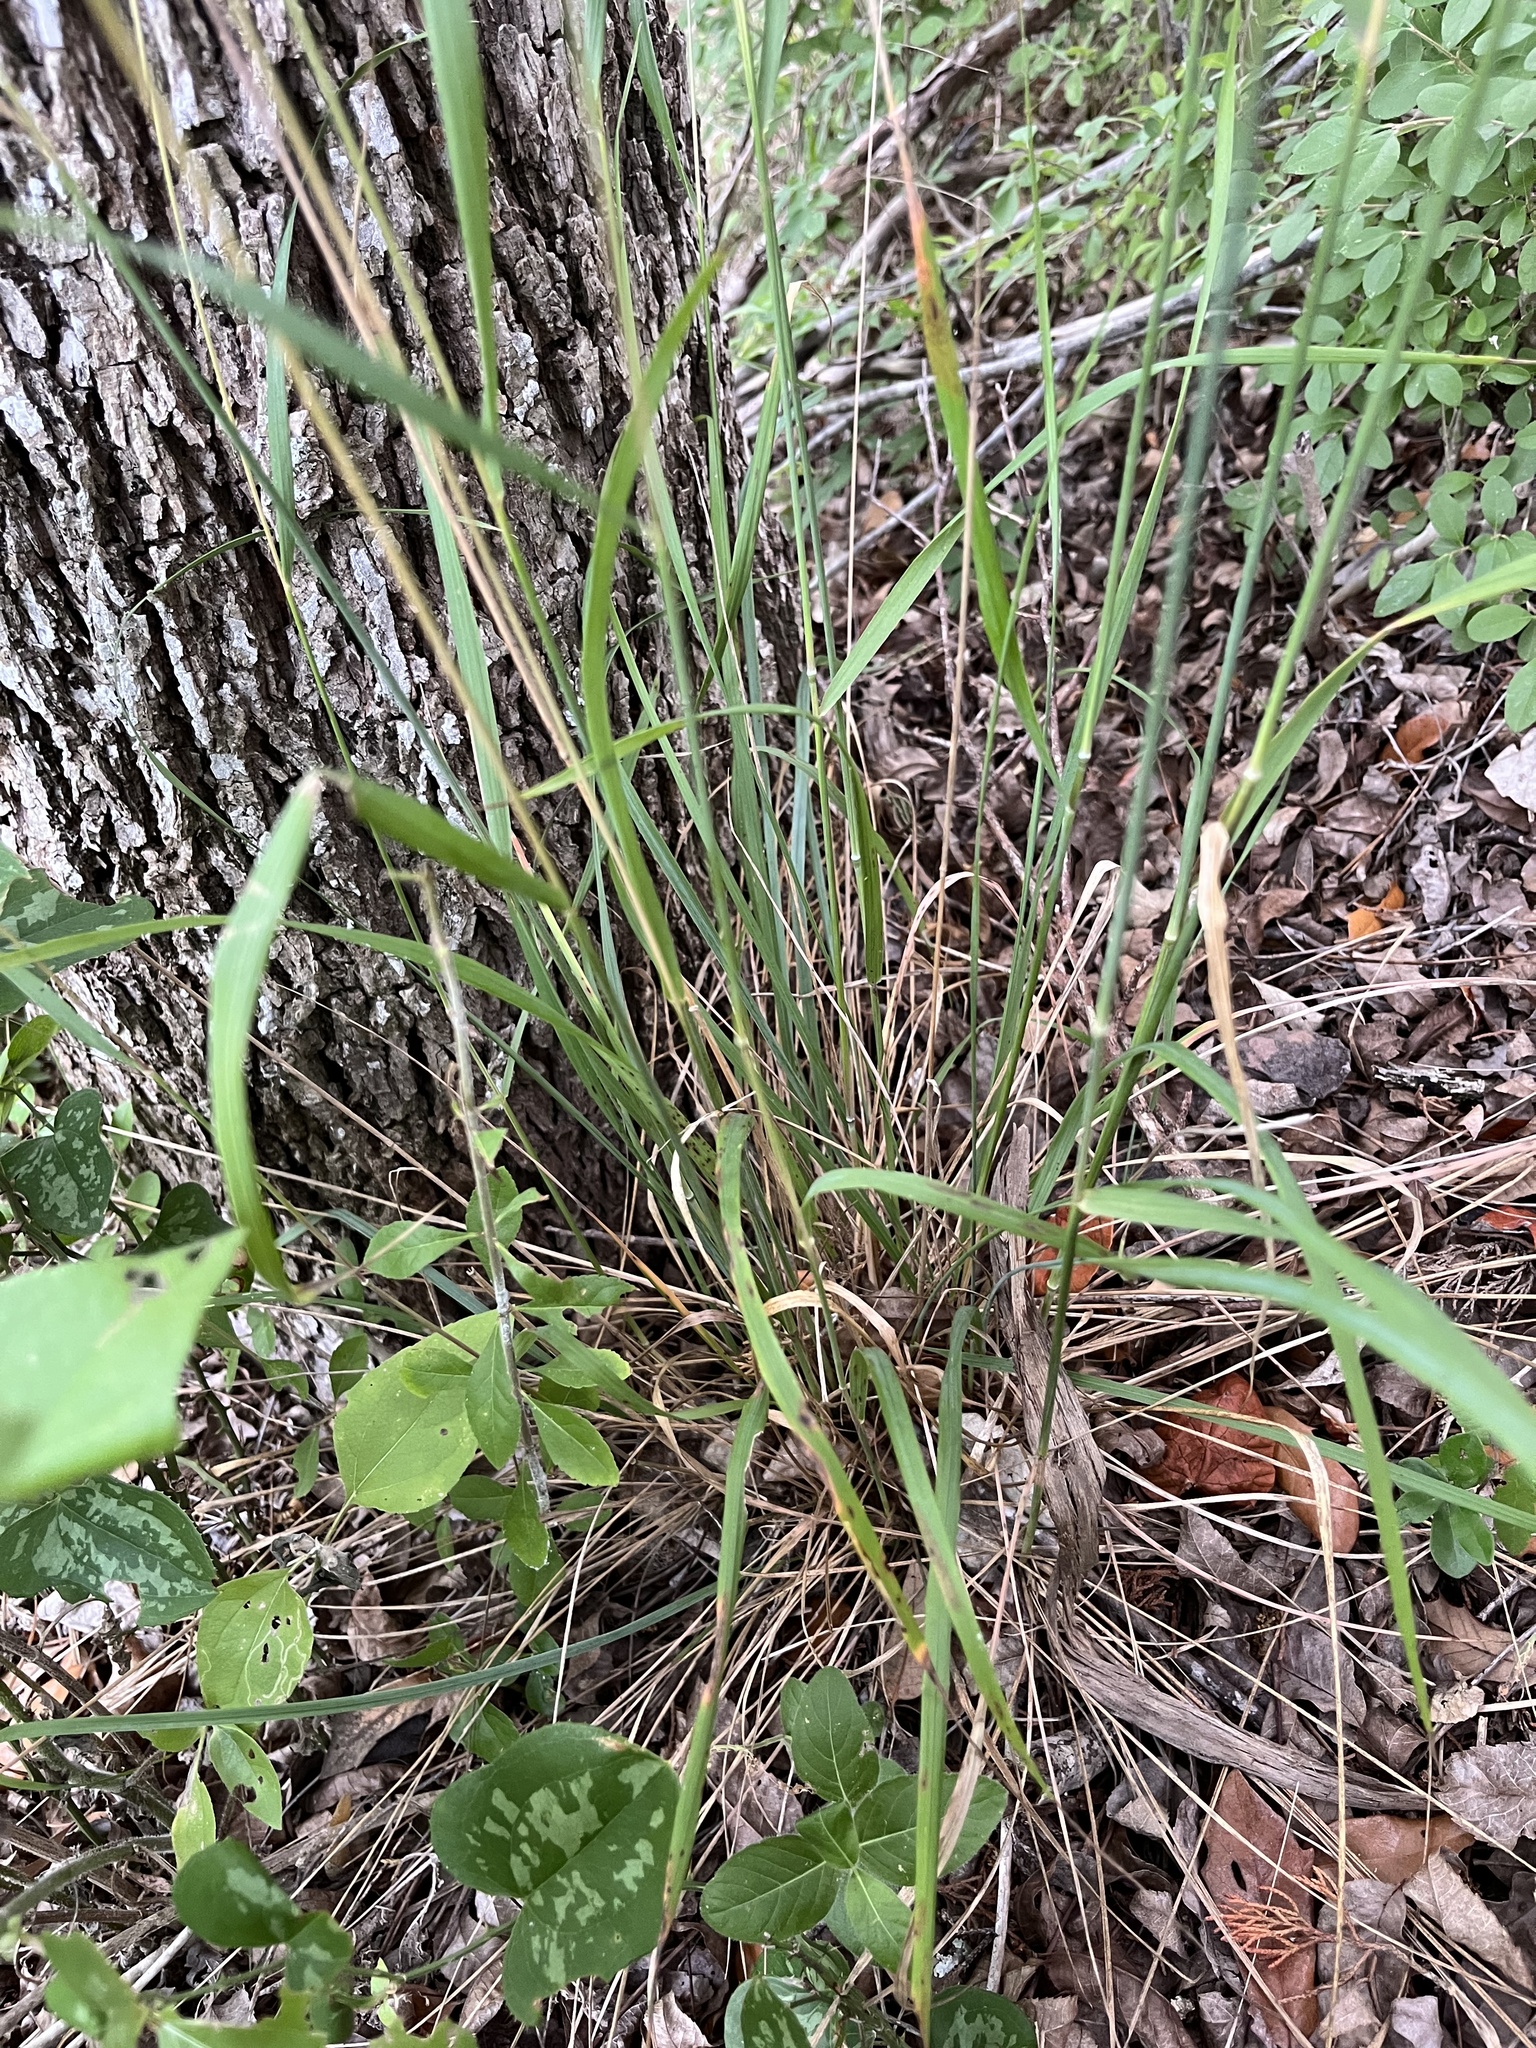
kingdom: Plantae
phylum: Tracheophyta
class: Liliopsida
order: Poales
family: Poaceae
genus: Tridens
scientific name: Tridens flavus
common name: Purpletop
